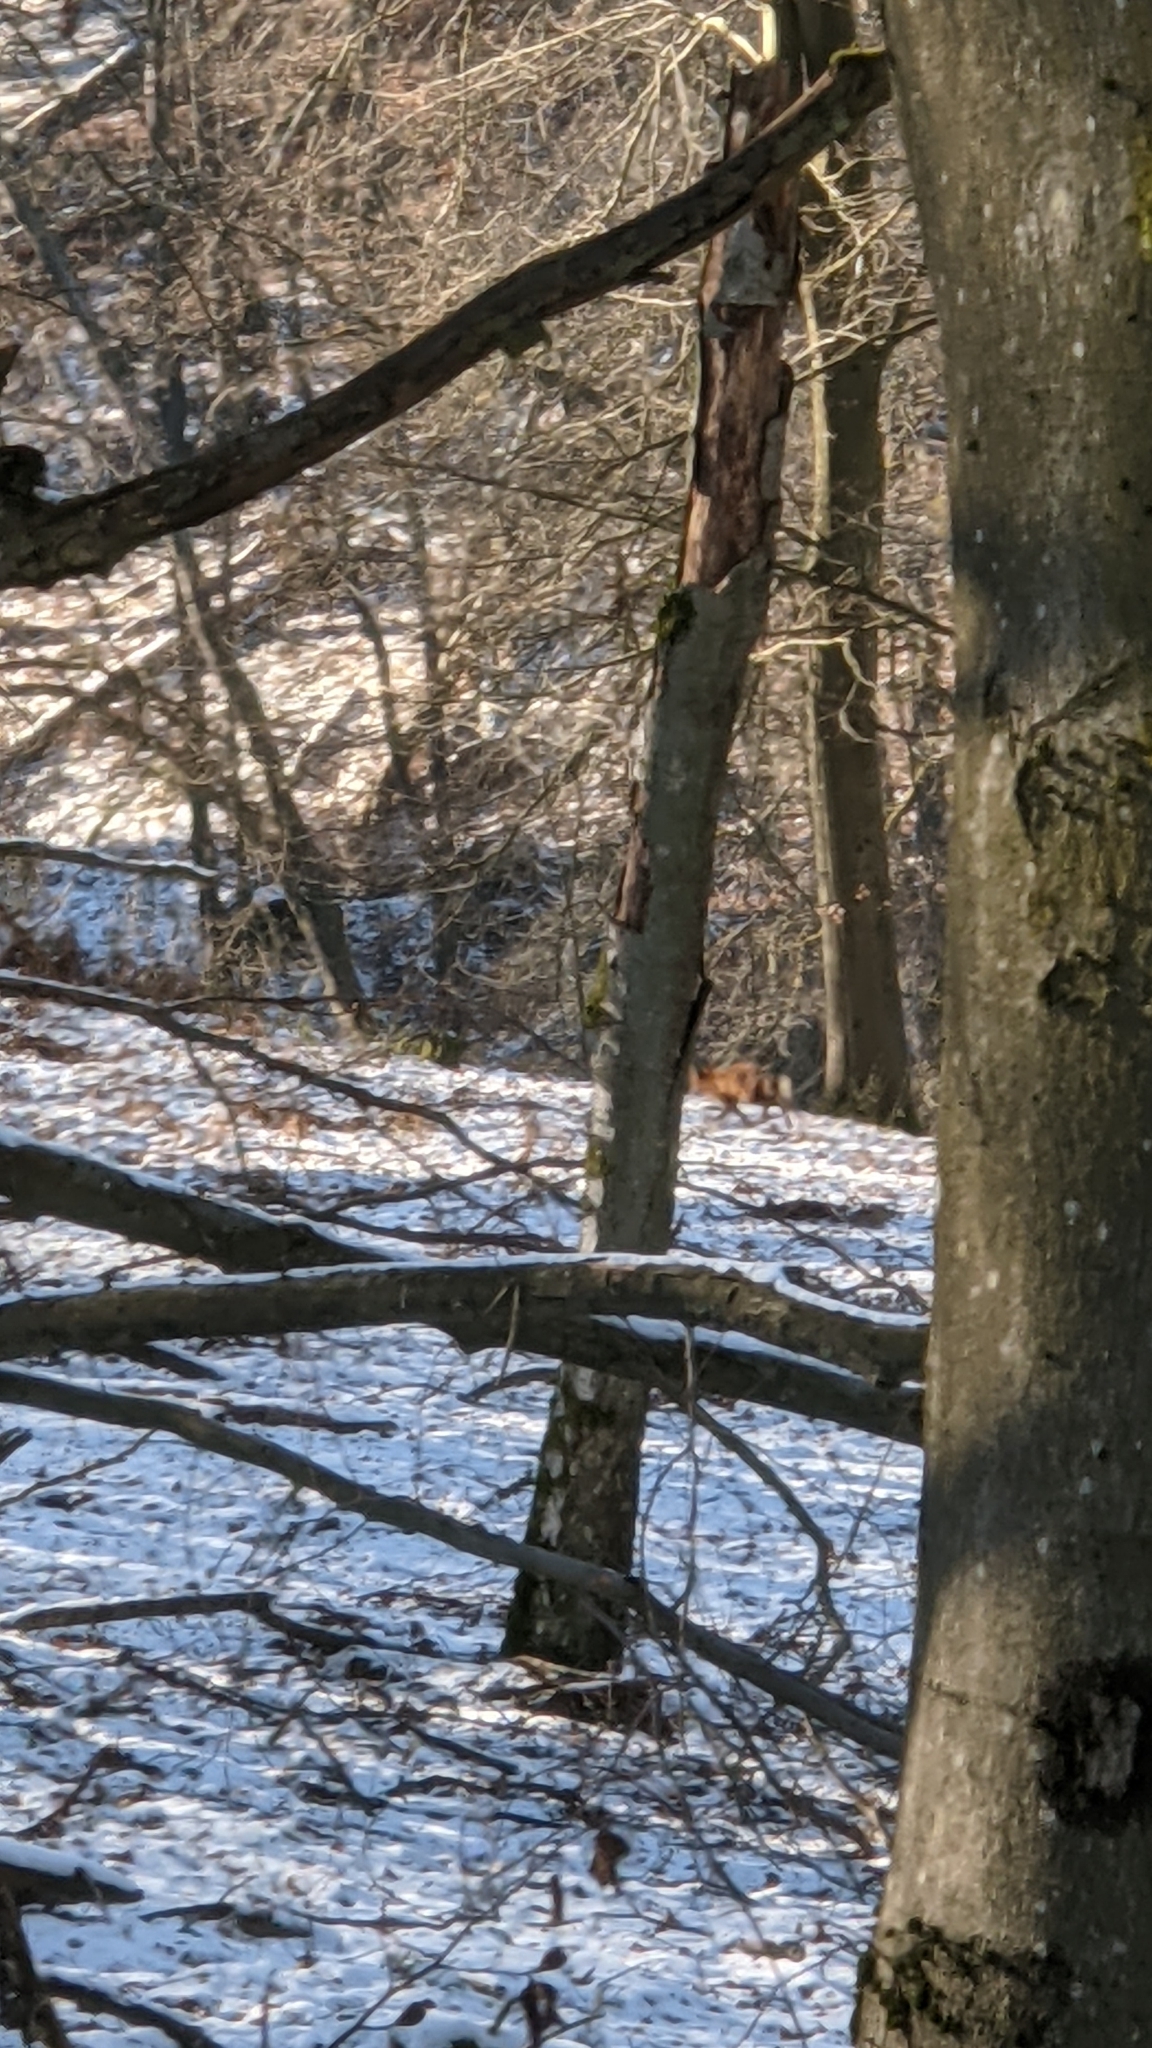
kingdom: Animalia
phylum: Chordata
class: Mammalia
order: Carnivora
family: Canidae
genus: Vulpes
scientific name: Vulpes vulpes
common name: Red fox
